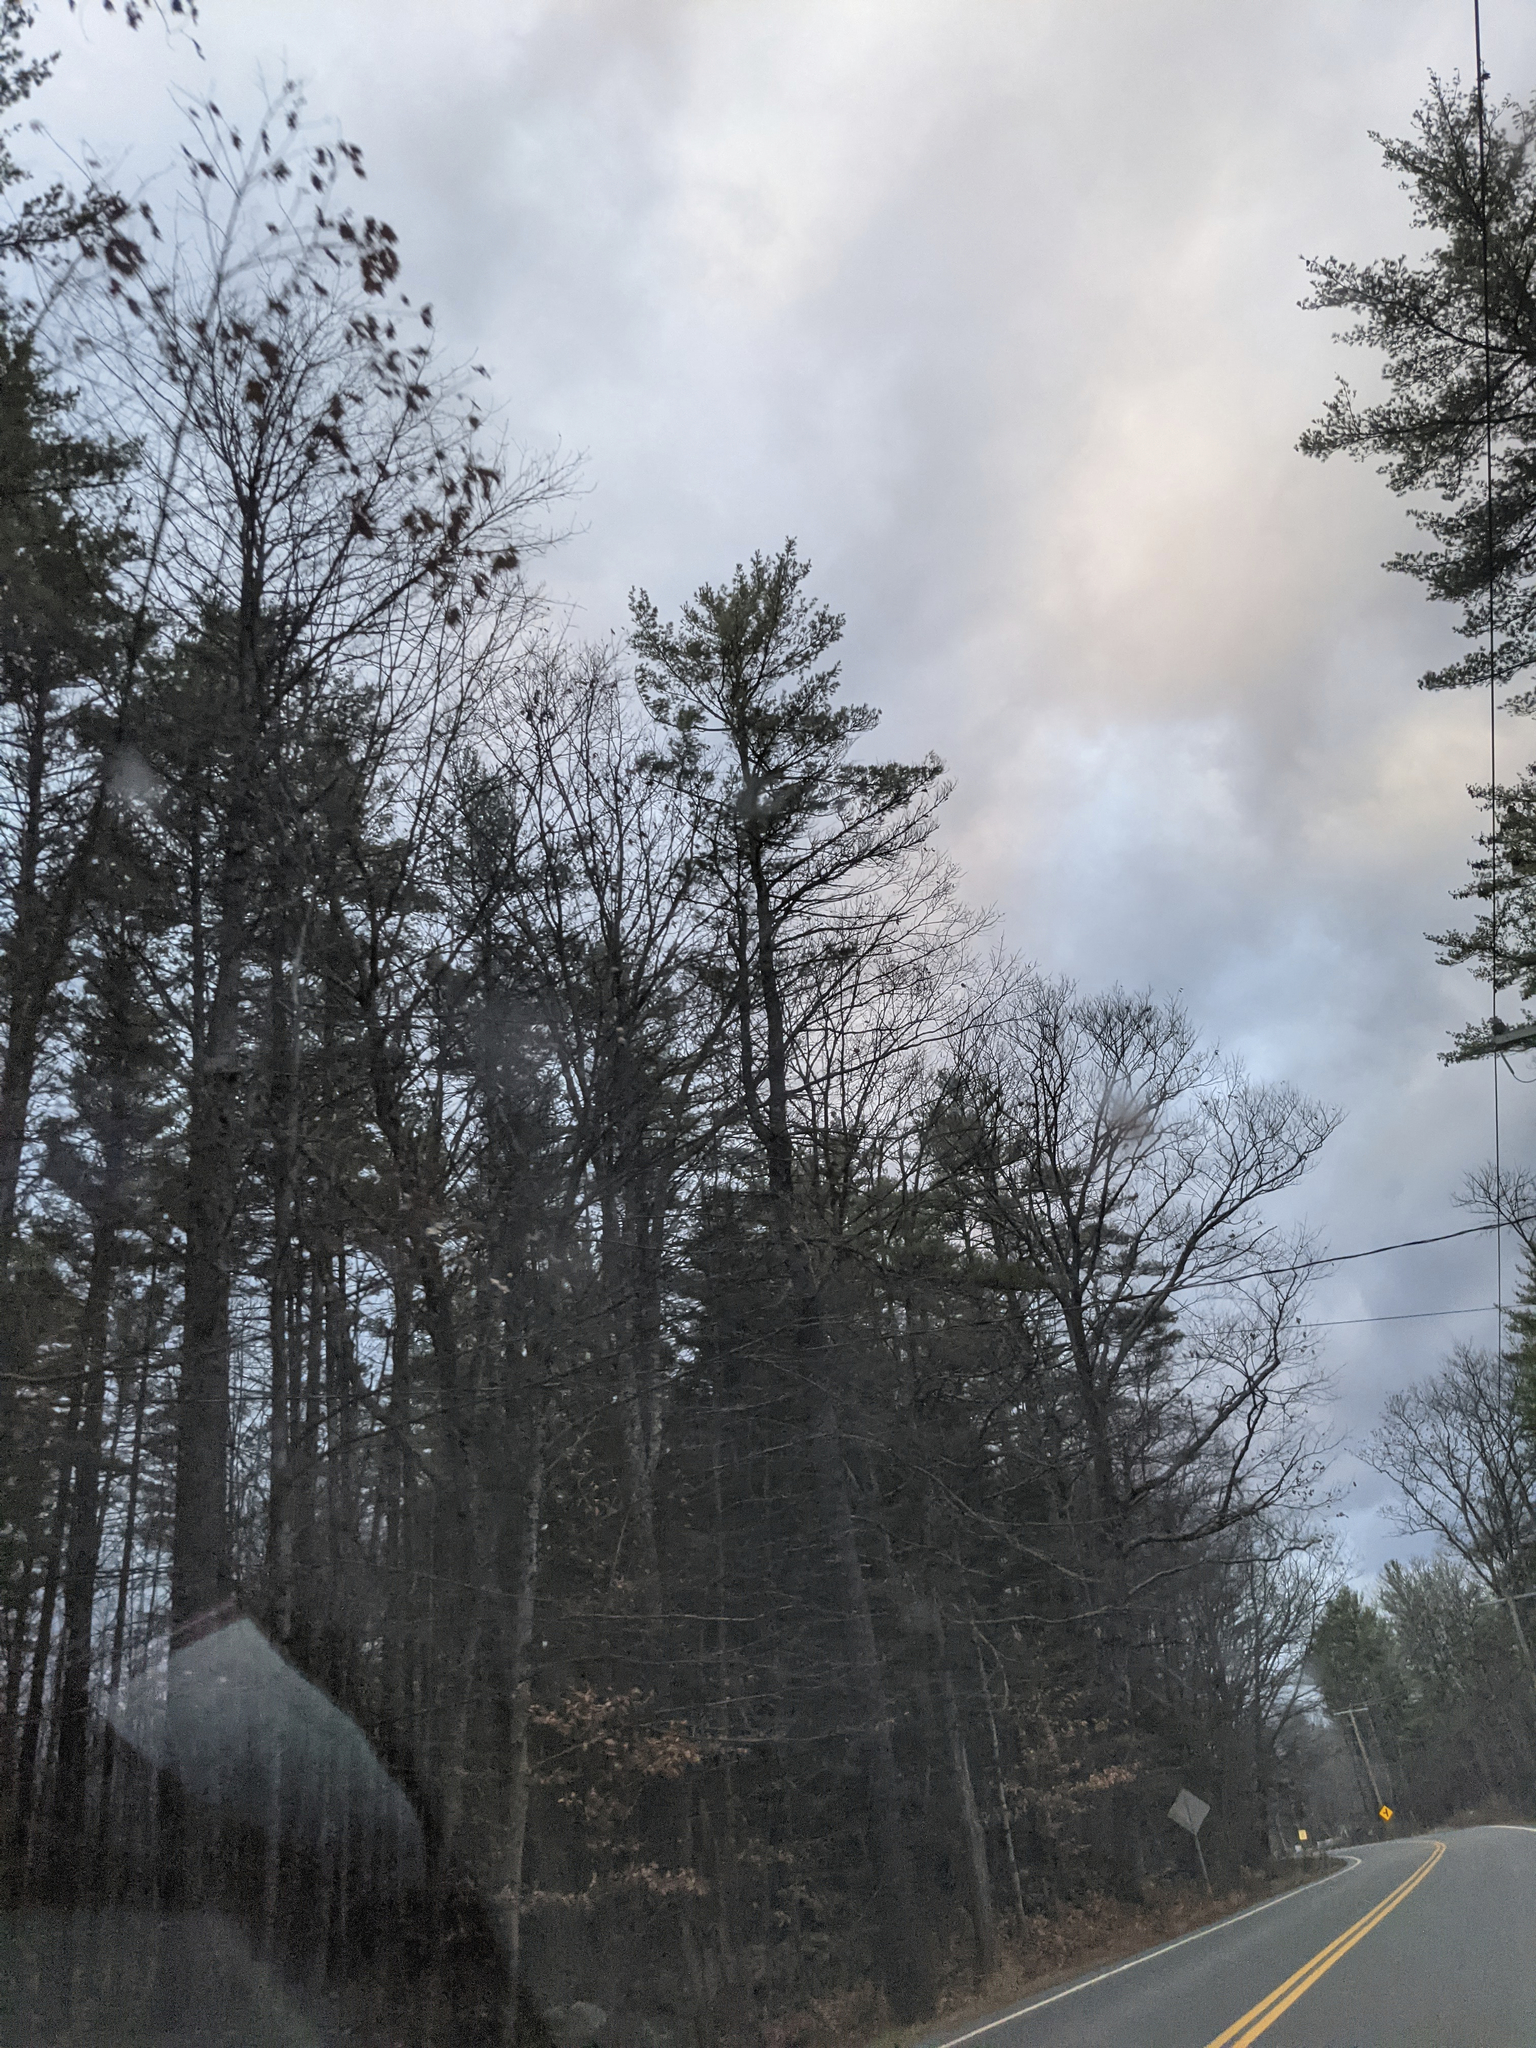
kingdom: Plantae
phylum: Tracheophyta
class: Pinopsida
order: Pinales
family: Pinaceae
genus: Pinus
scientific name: Pinus strobus
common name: Weymouth pine
